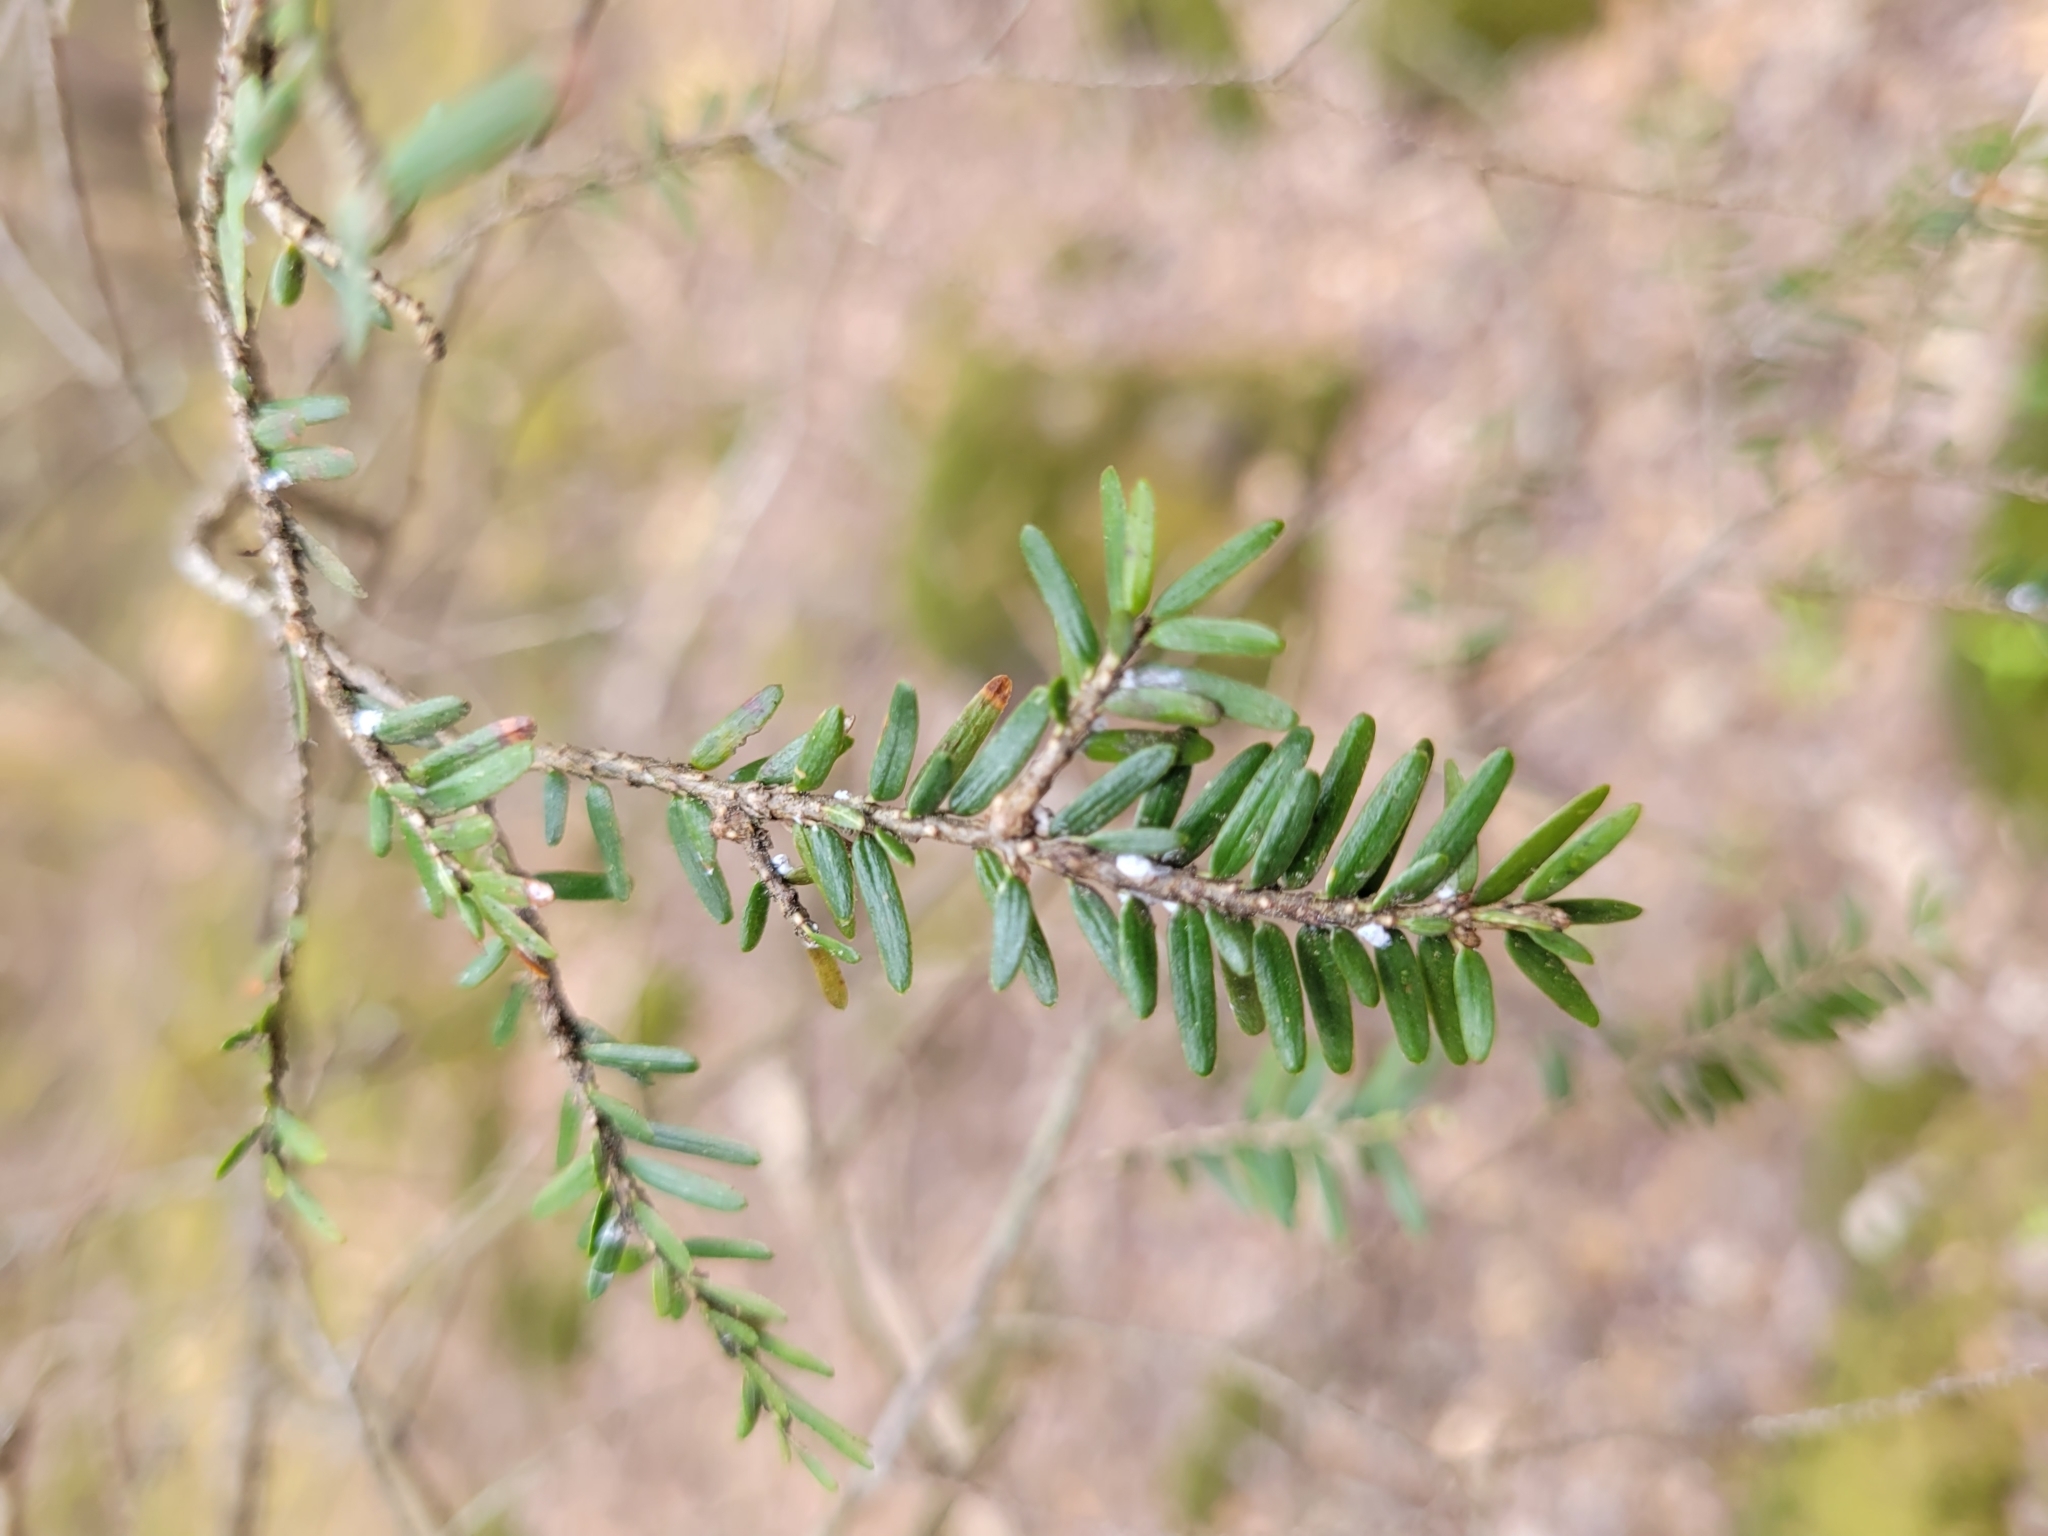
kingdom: Animalia
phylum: Arthropoda
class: Insecta
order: Hemiptera
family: Adelgidae
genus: Adelges
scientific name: Adelges tsugae
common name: Hemlock woolly adelgid
